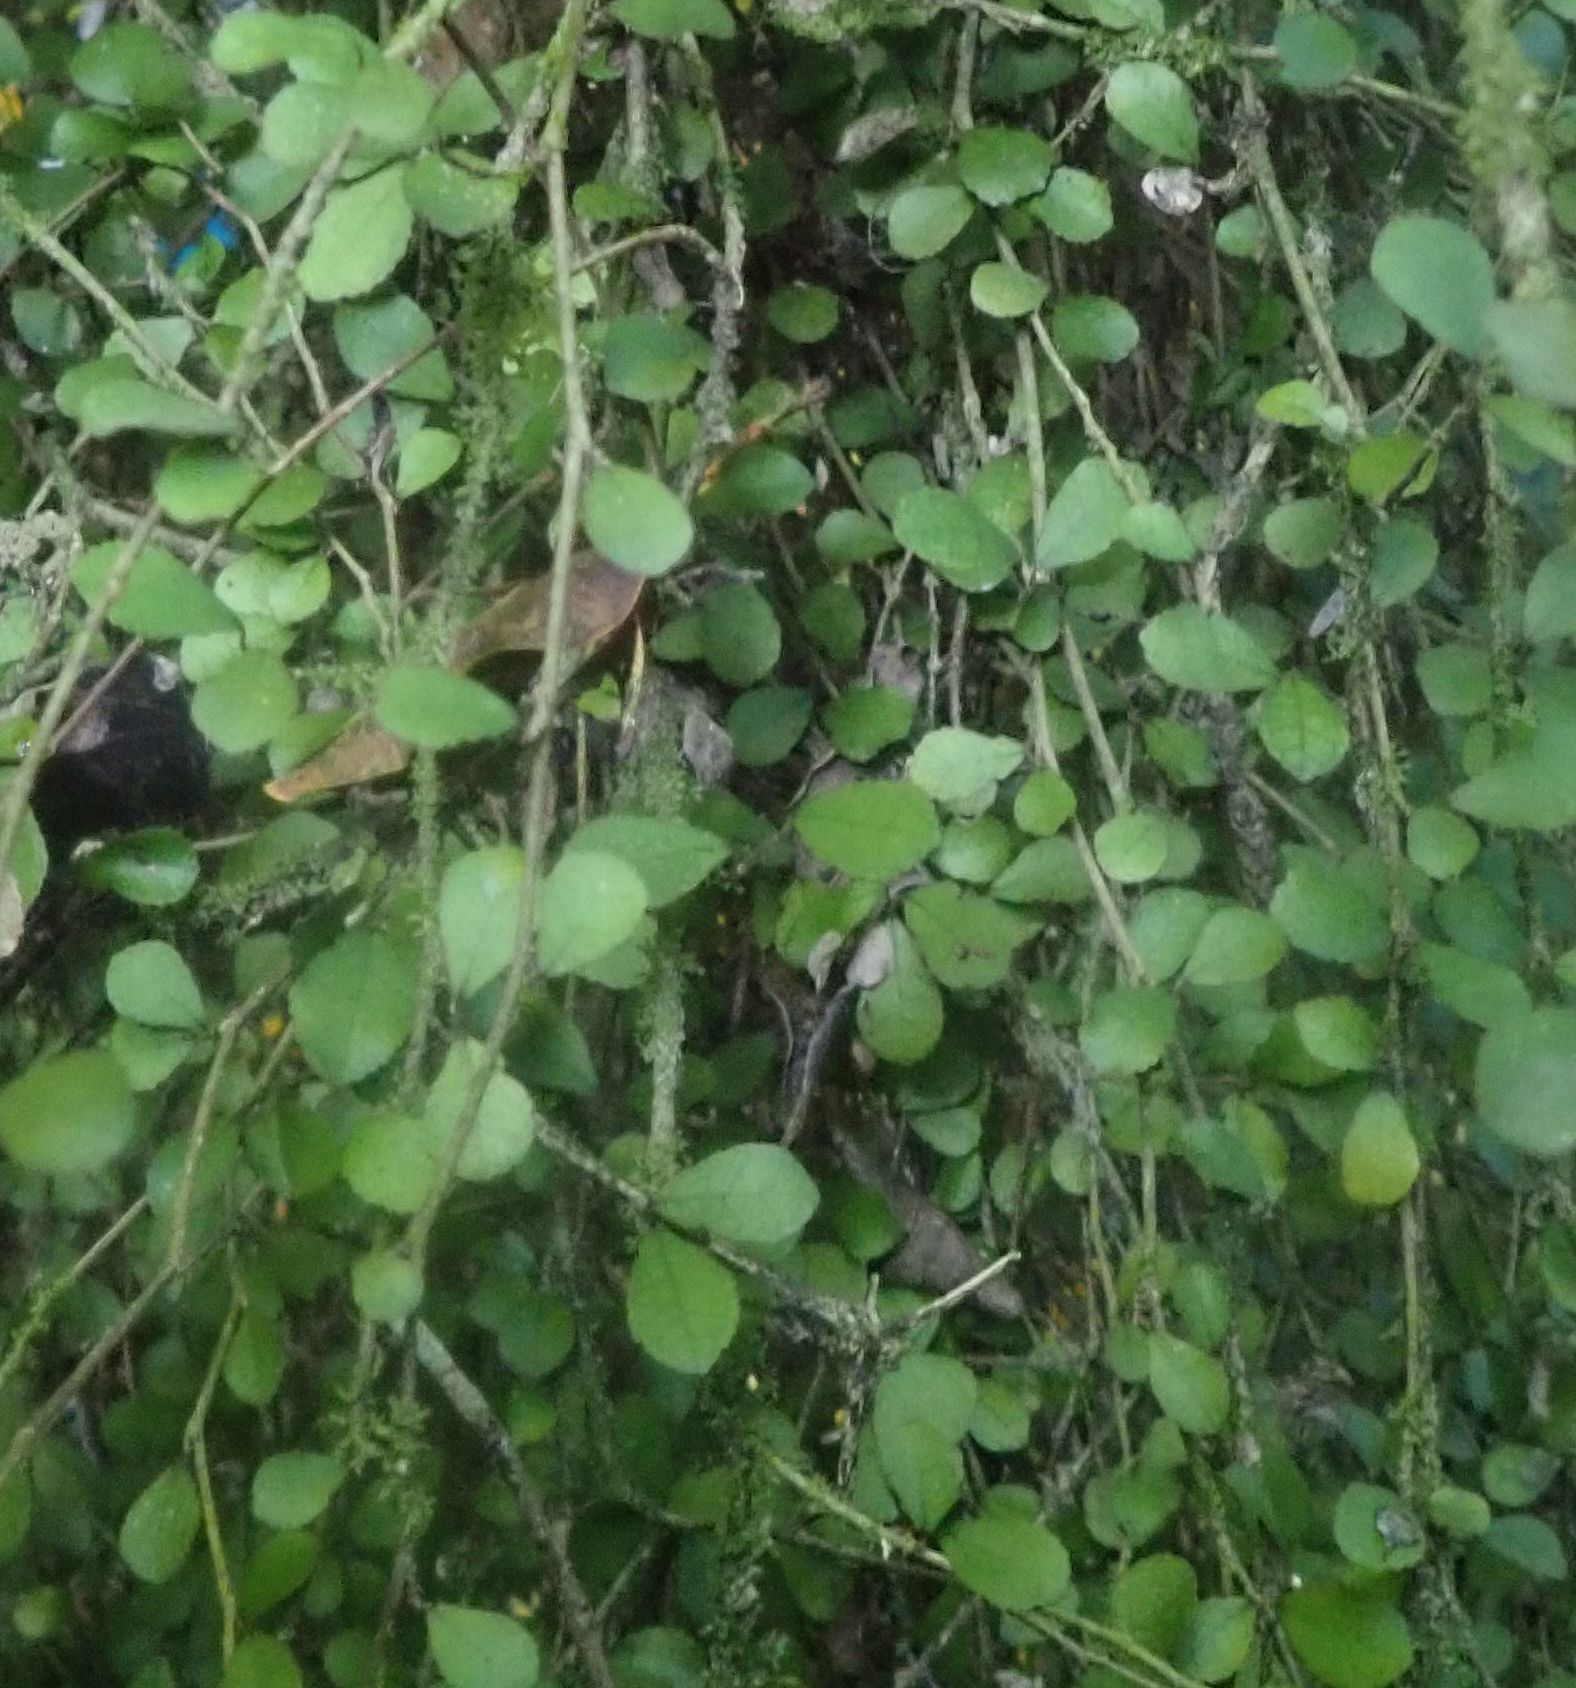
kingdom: Plantae
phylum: Tracheophyta
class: Magnoliopsida
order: Rosales
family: Moraceae
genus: Paratrophis
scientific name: Paratrophis microphylla
